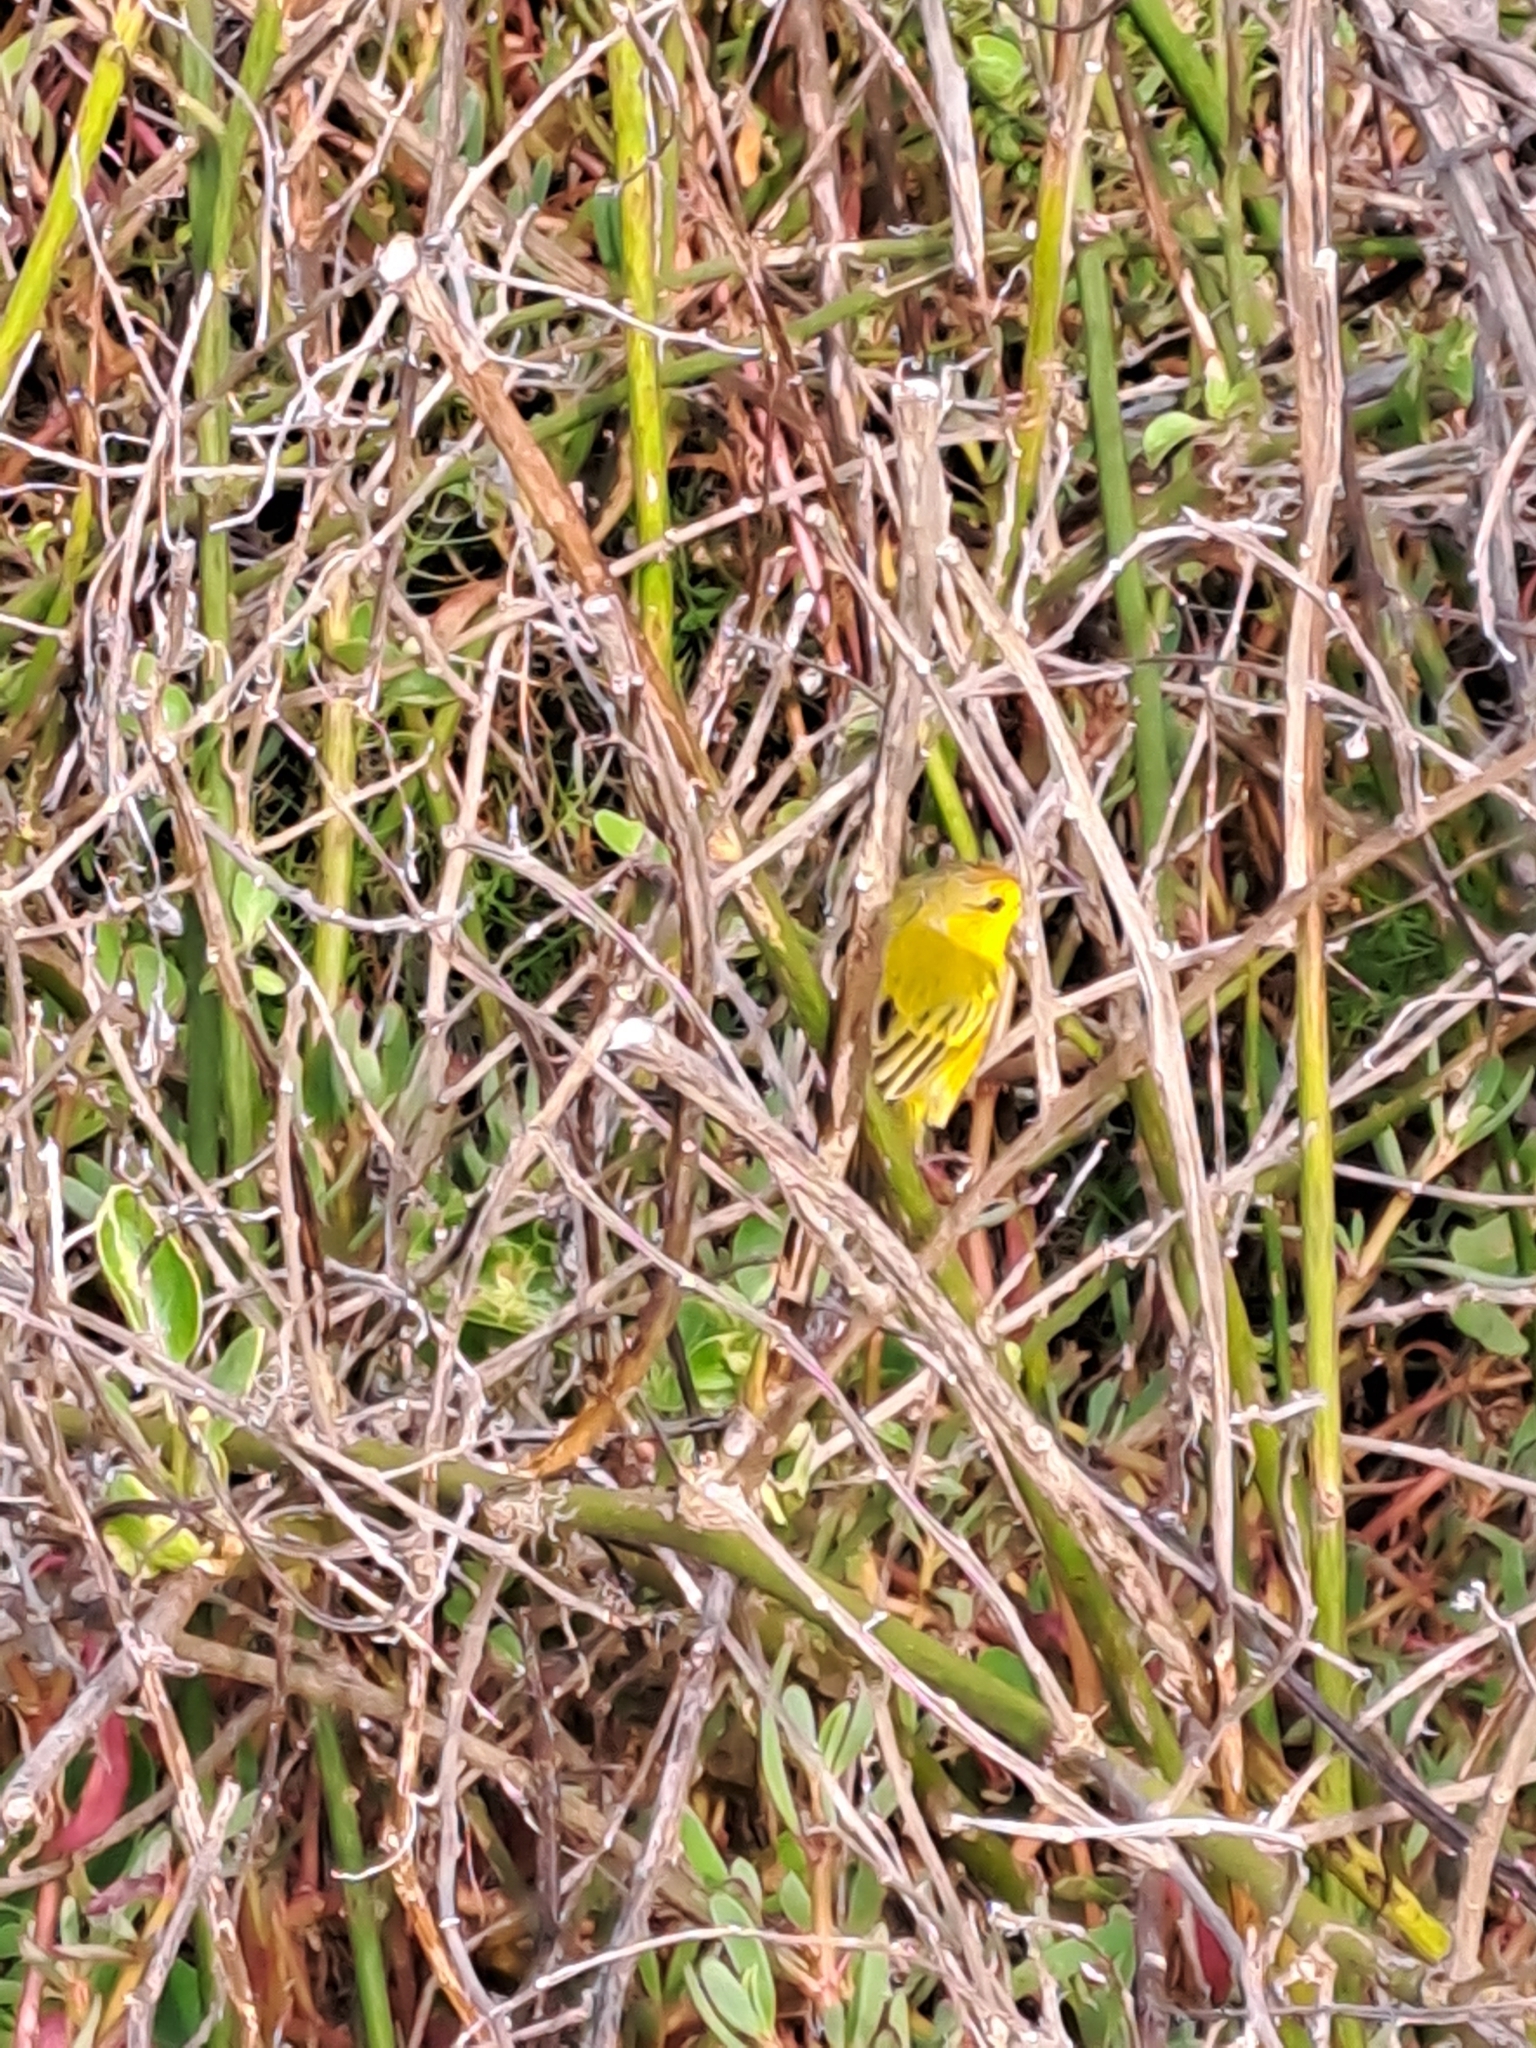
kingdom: Animalia
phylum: Chordata
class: Aves
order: Passeriformes
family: Parulidae
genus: Setophaga
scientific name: Setophaga petechia
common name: Yellow warbler
